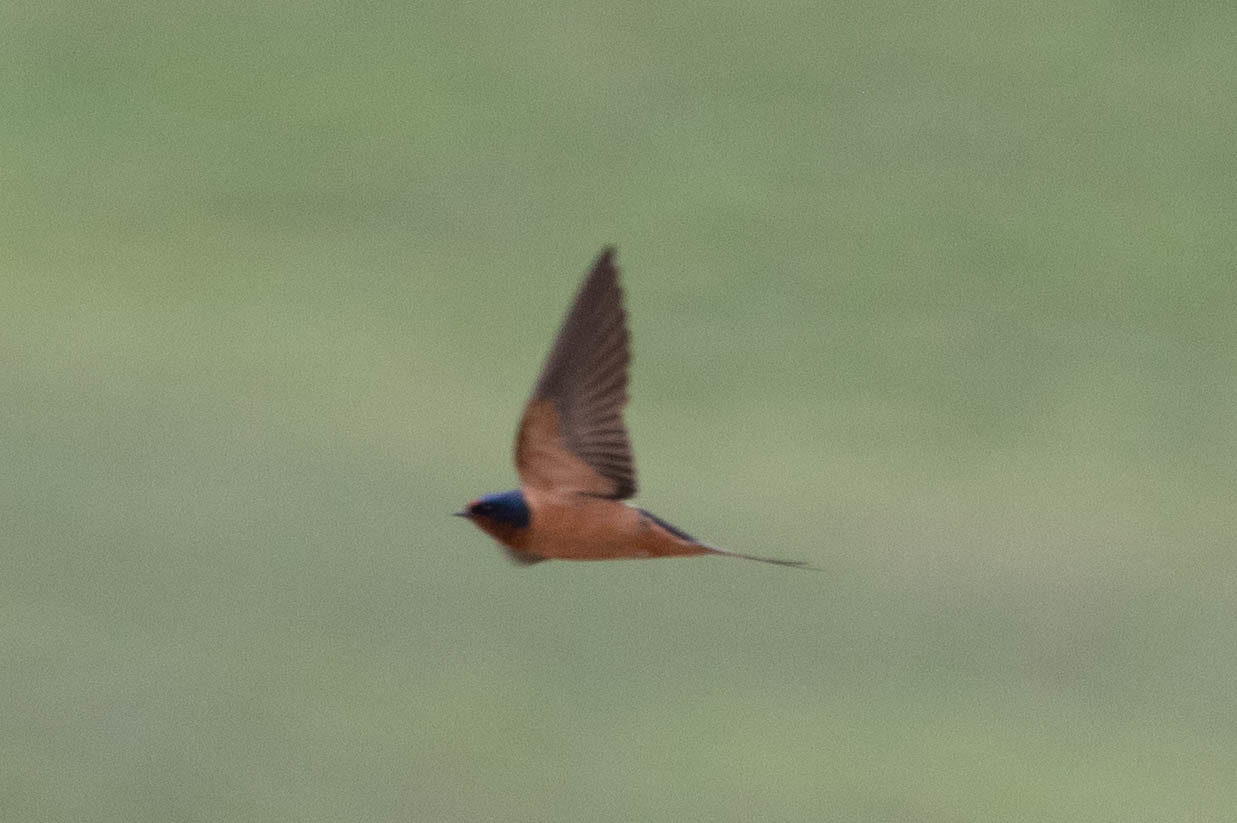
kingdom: Animalia
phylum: Chordata
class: Aves
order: Passeriformes
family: Hirundinidae
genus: Hirundo
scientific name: Hirundo rustica
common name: Barn swallow
